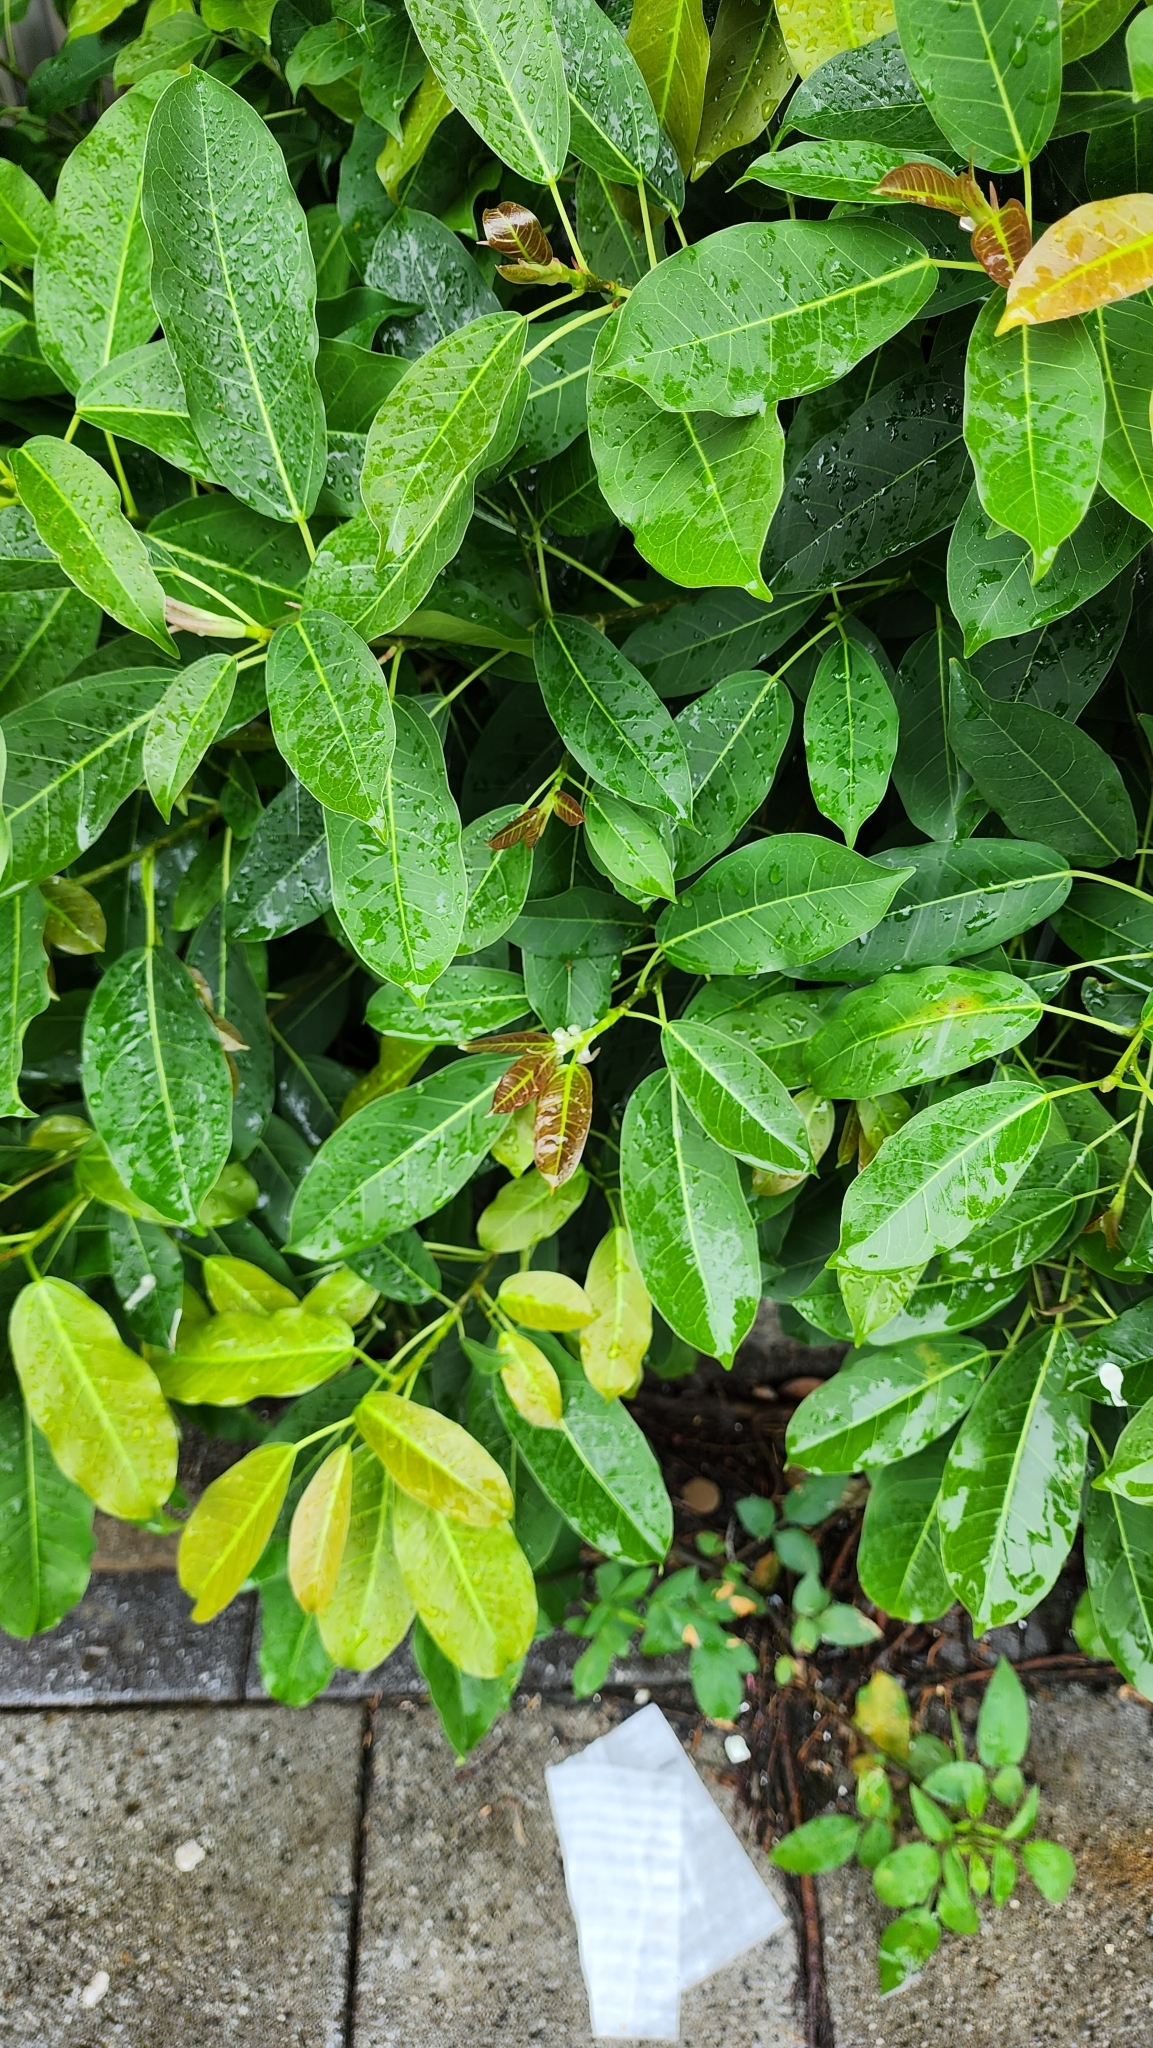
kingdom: Plantae
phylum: Tracheophyta
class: Magnoliopsida
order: Rosales
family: Moraceae
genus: Ficus
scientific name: Ficus subpisocarpa
